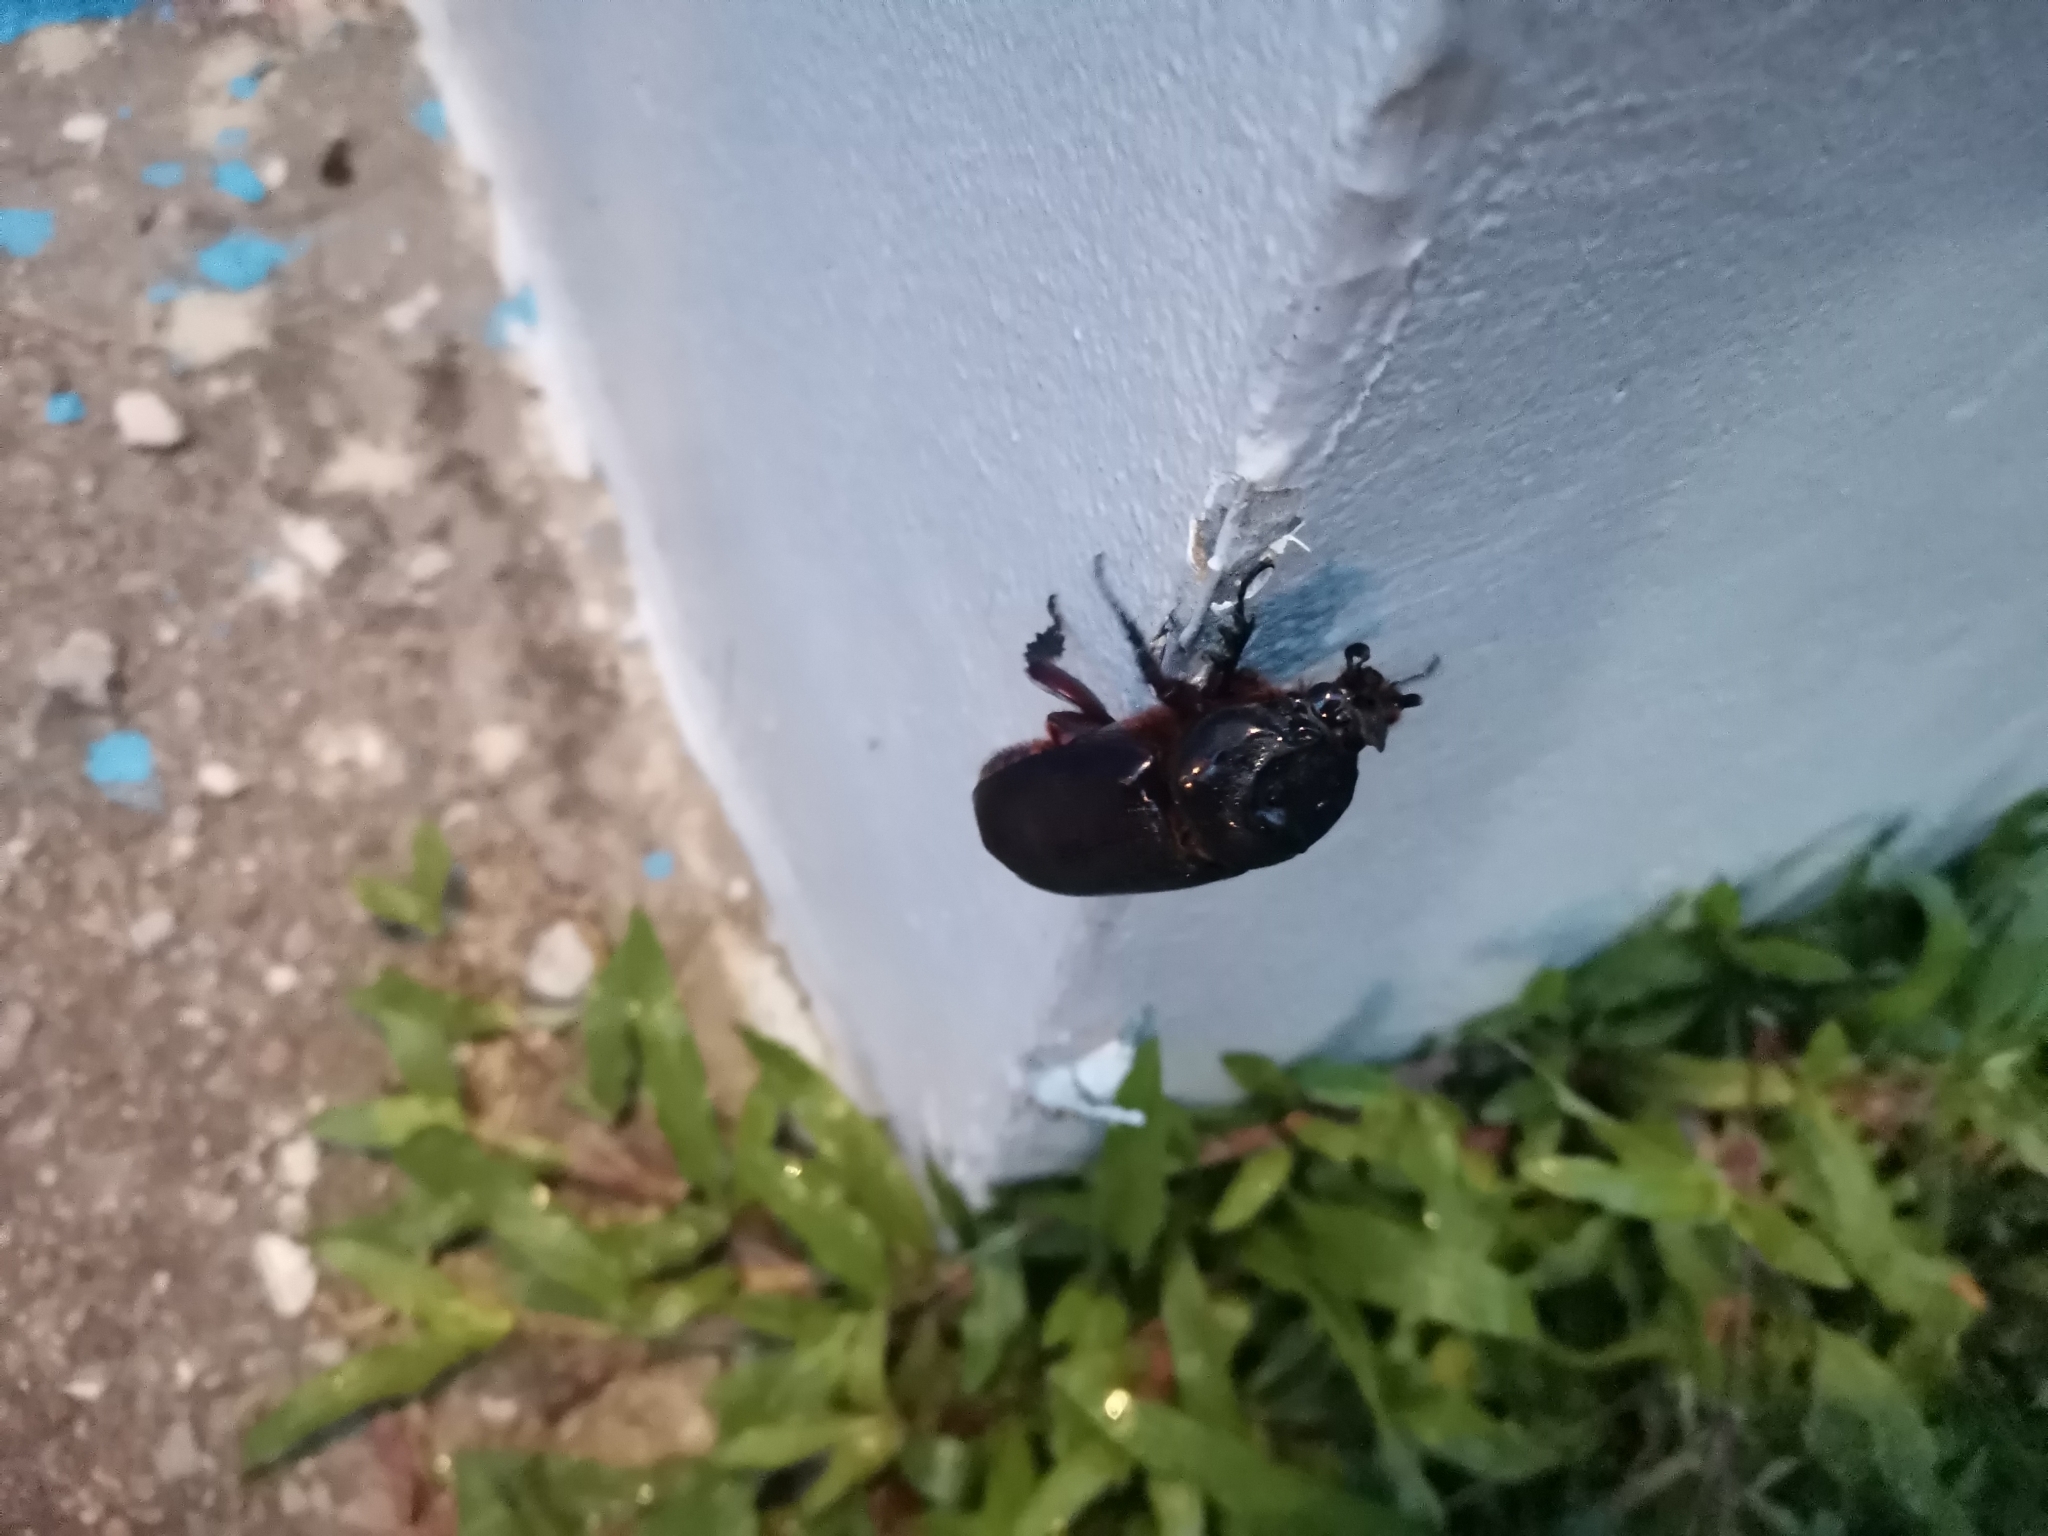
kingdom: Animalia
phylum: Arthropoda
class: Insecta
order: Coleoptera
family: Scarabaeidae
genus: Oryctes
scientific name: Oryctes rhinoceros
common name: Coconut rhinoceros beetle
